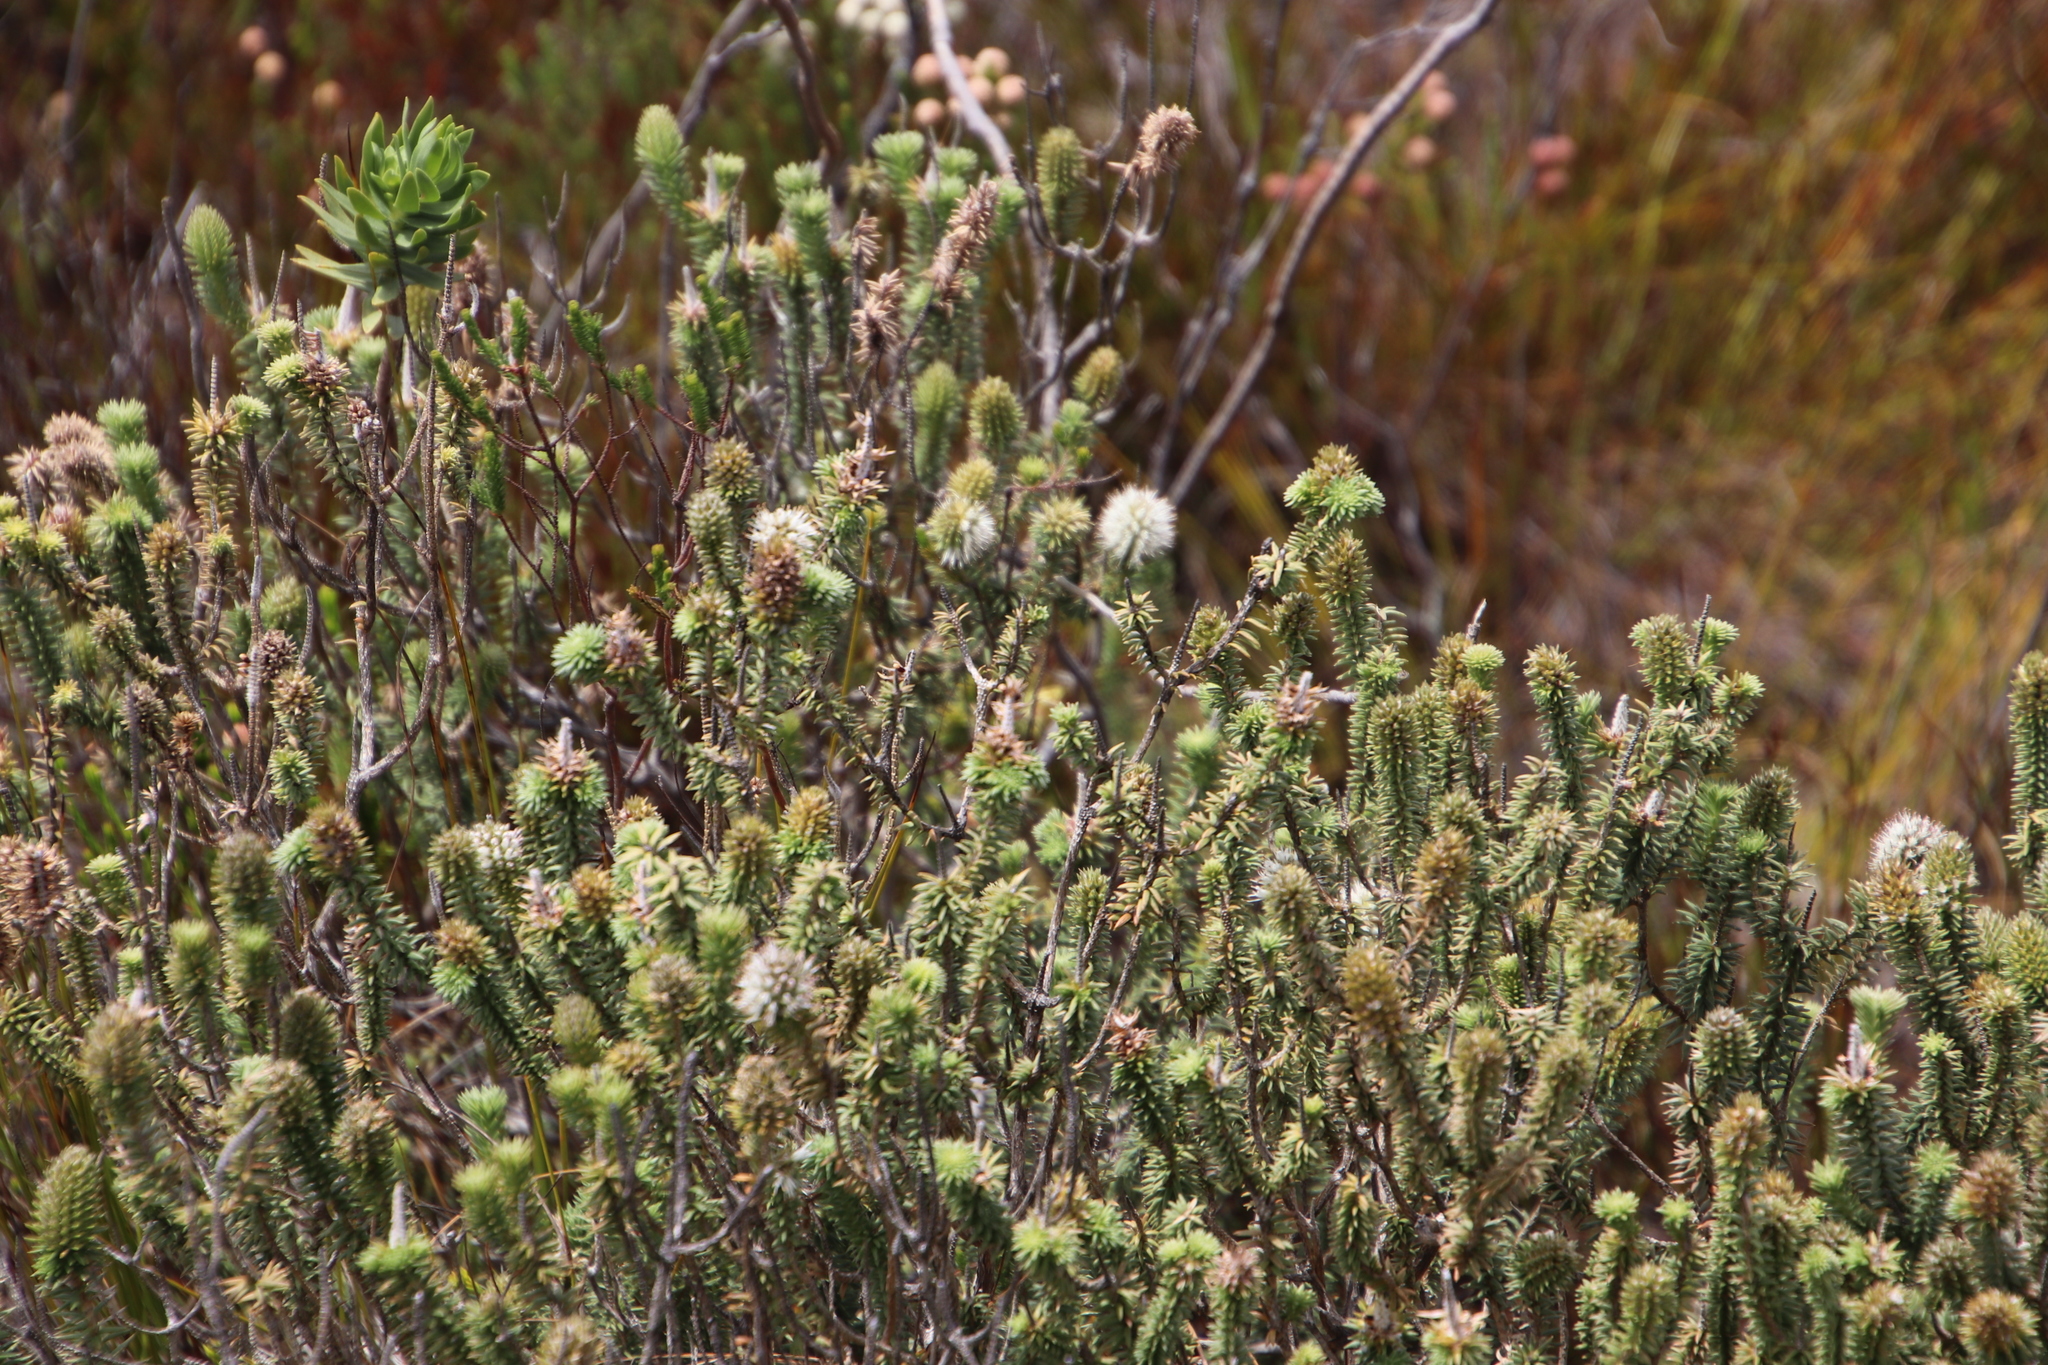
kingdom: Plantae
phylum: Tracheophyta
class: Magnoliopsida
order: Lamiales
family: Stilbaceae
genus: Stilbe
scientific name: Stilbe vestita
